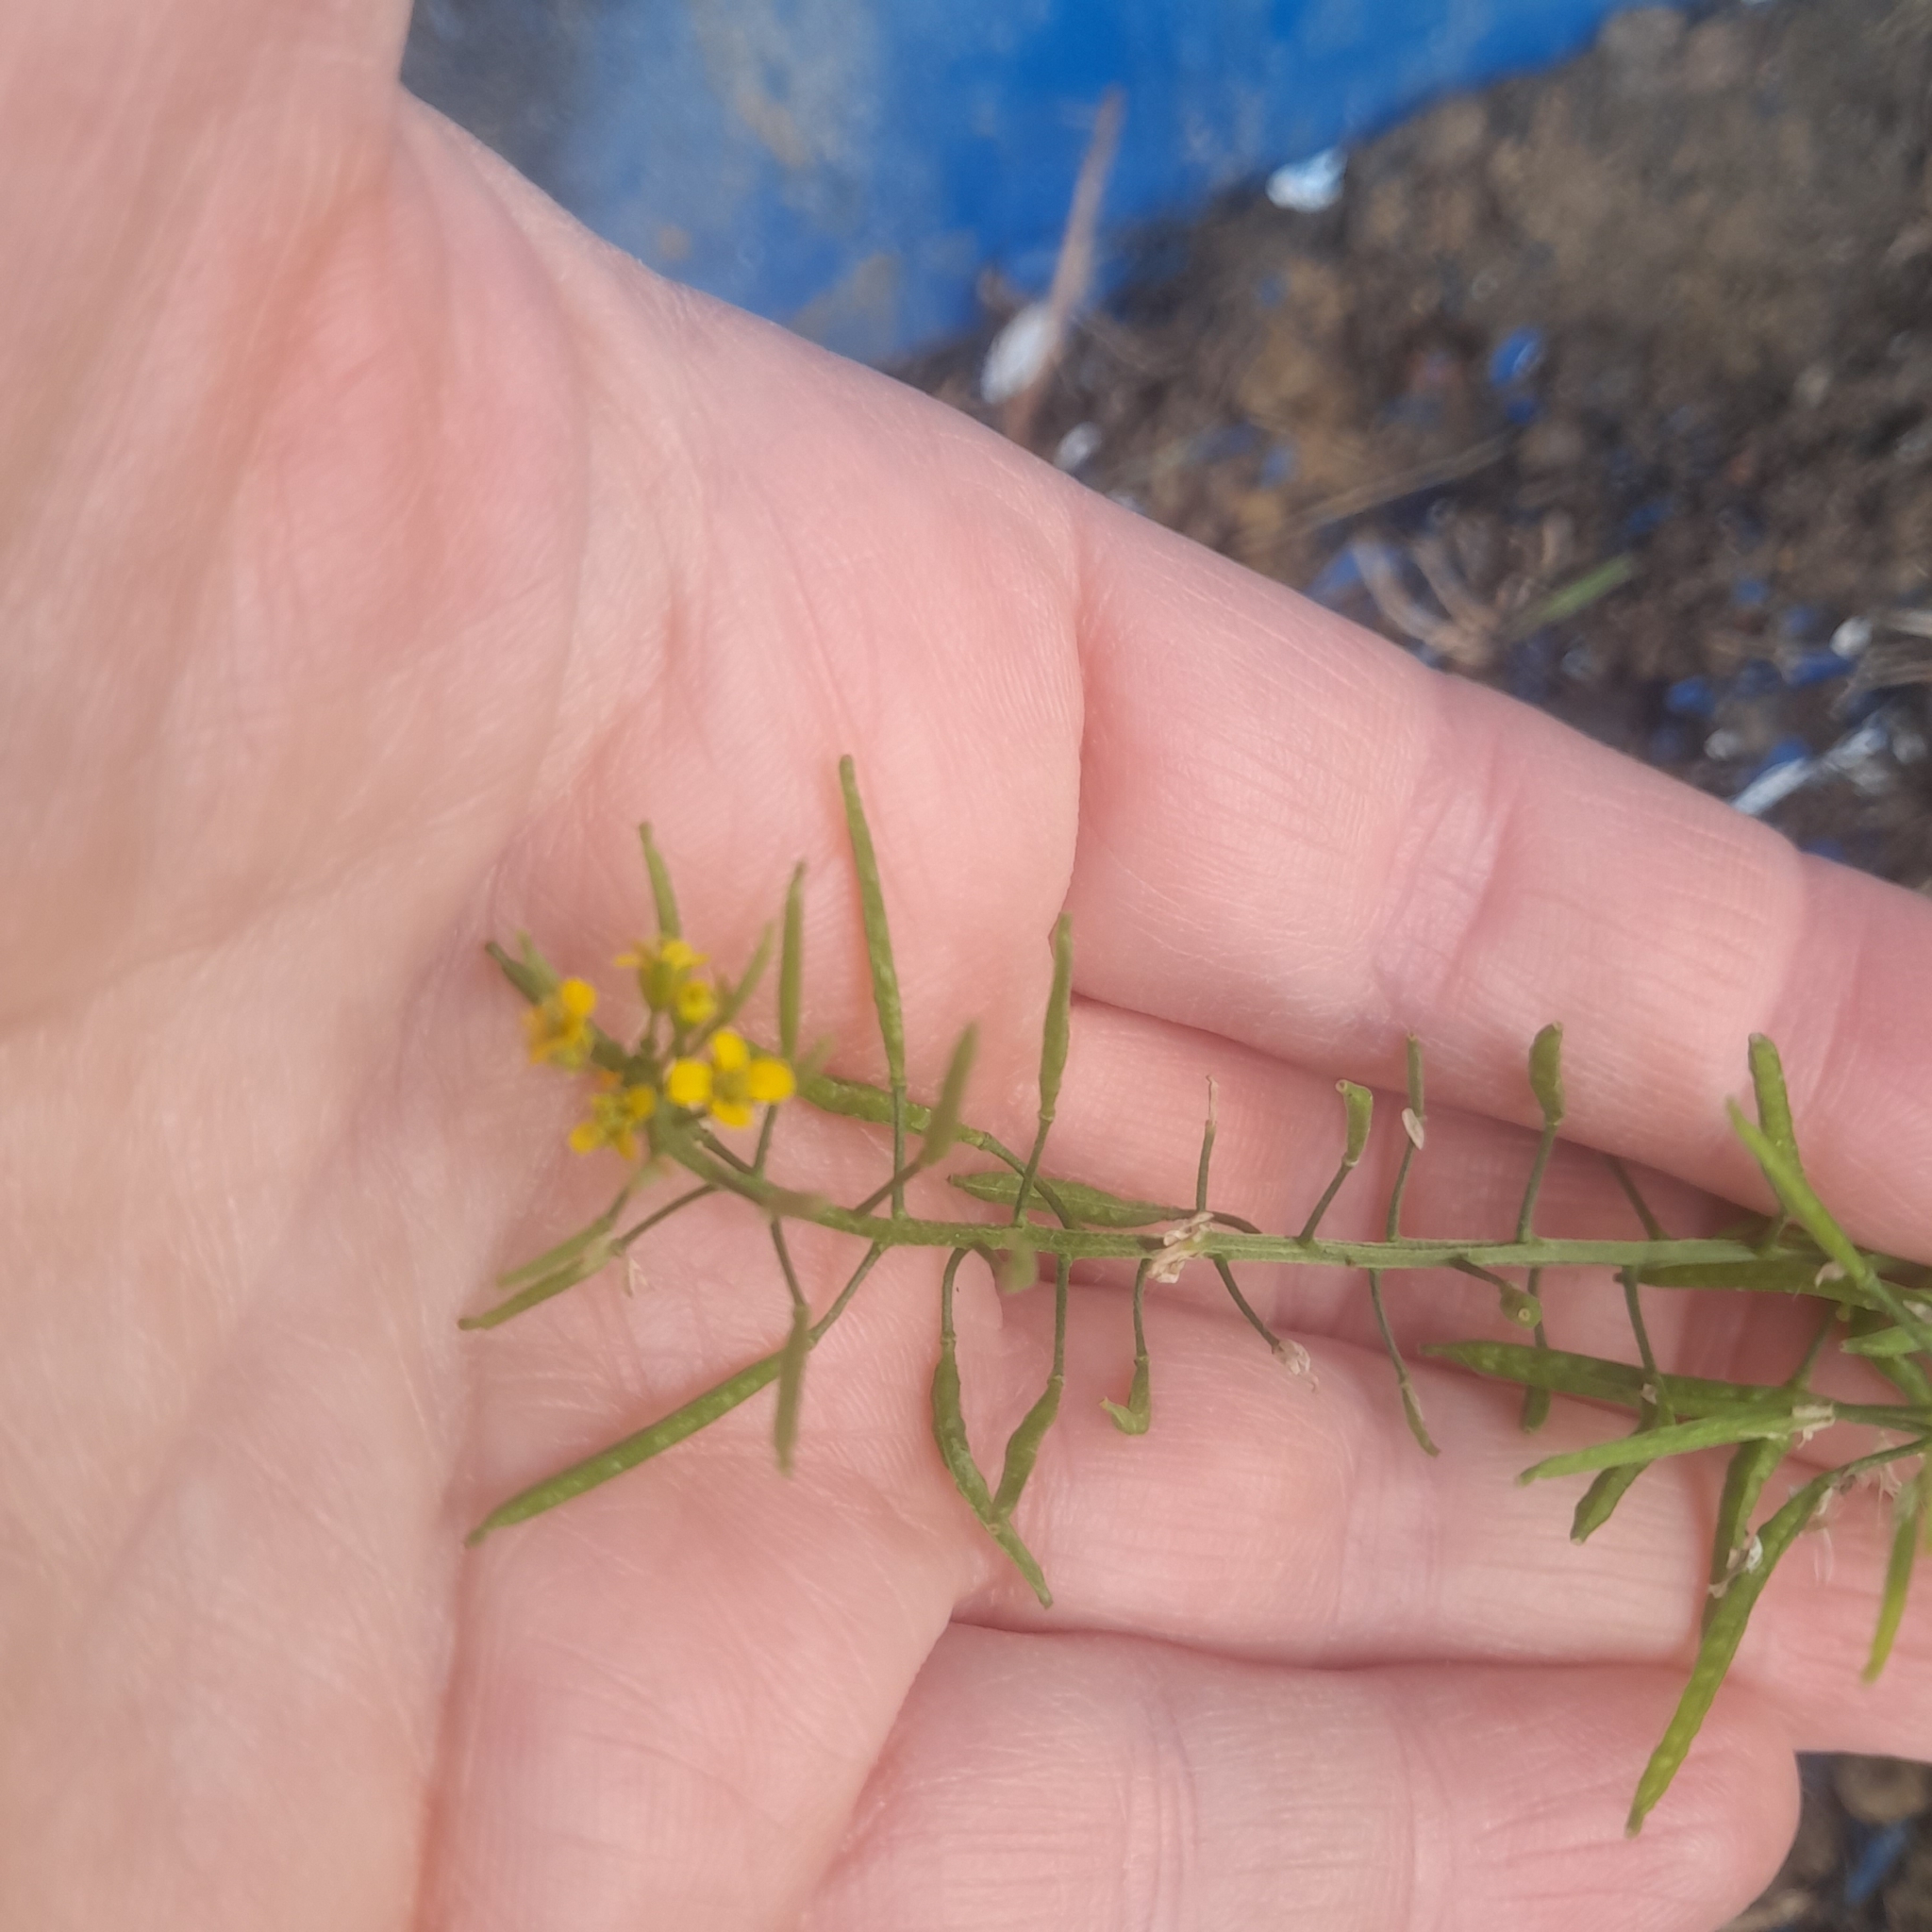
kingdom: Plantae
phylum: Tracheophyta
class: Magnoliopsida
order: Brassicales
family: Brassicaceae
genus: Erysimum
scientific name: Erysimum cheiranthoides
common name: Treacle mustard
